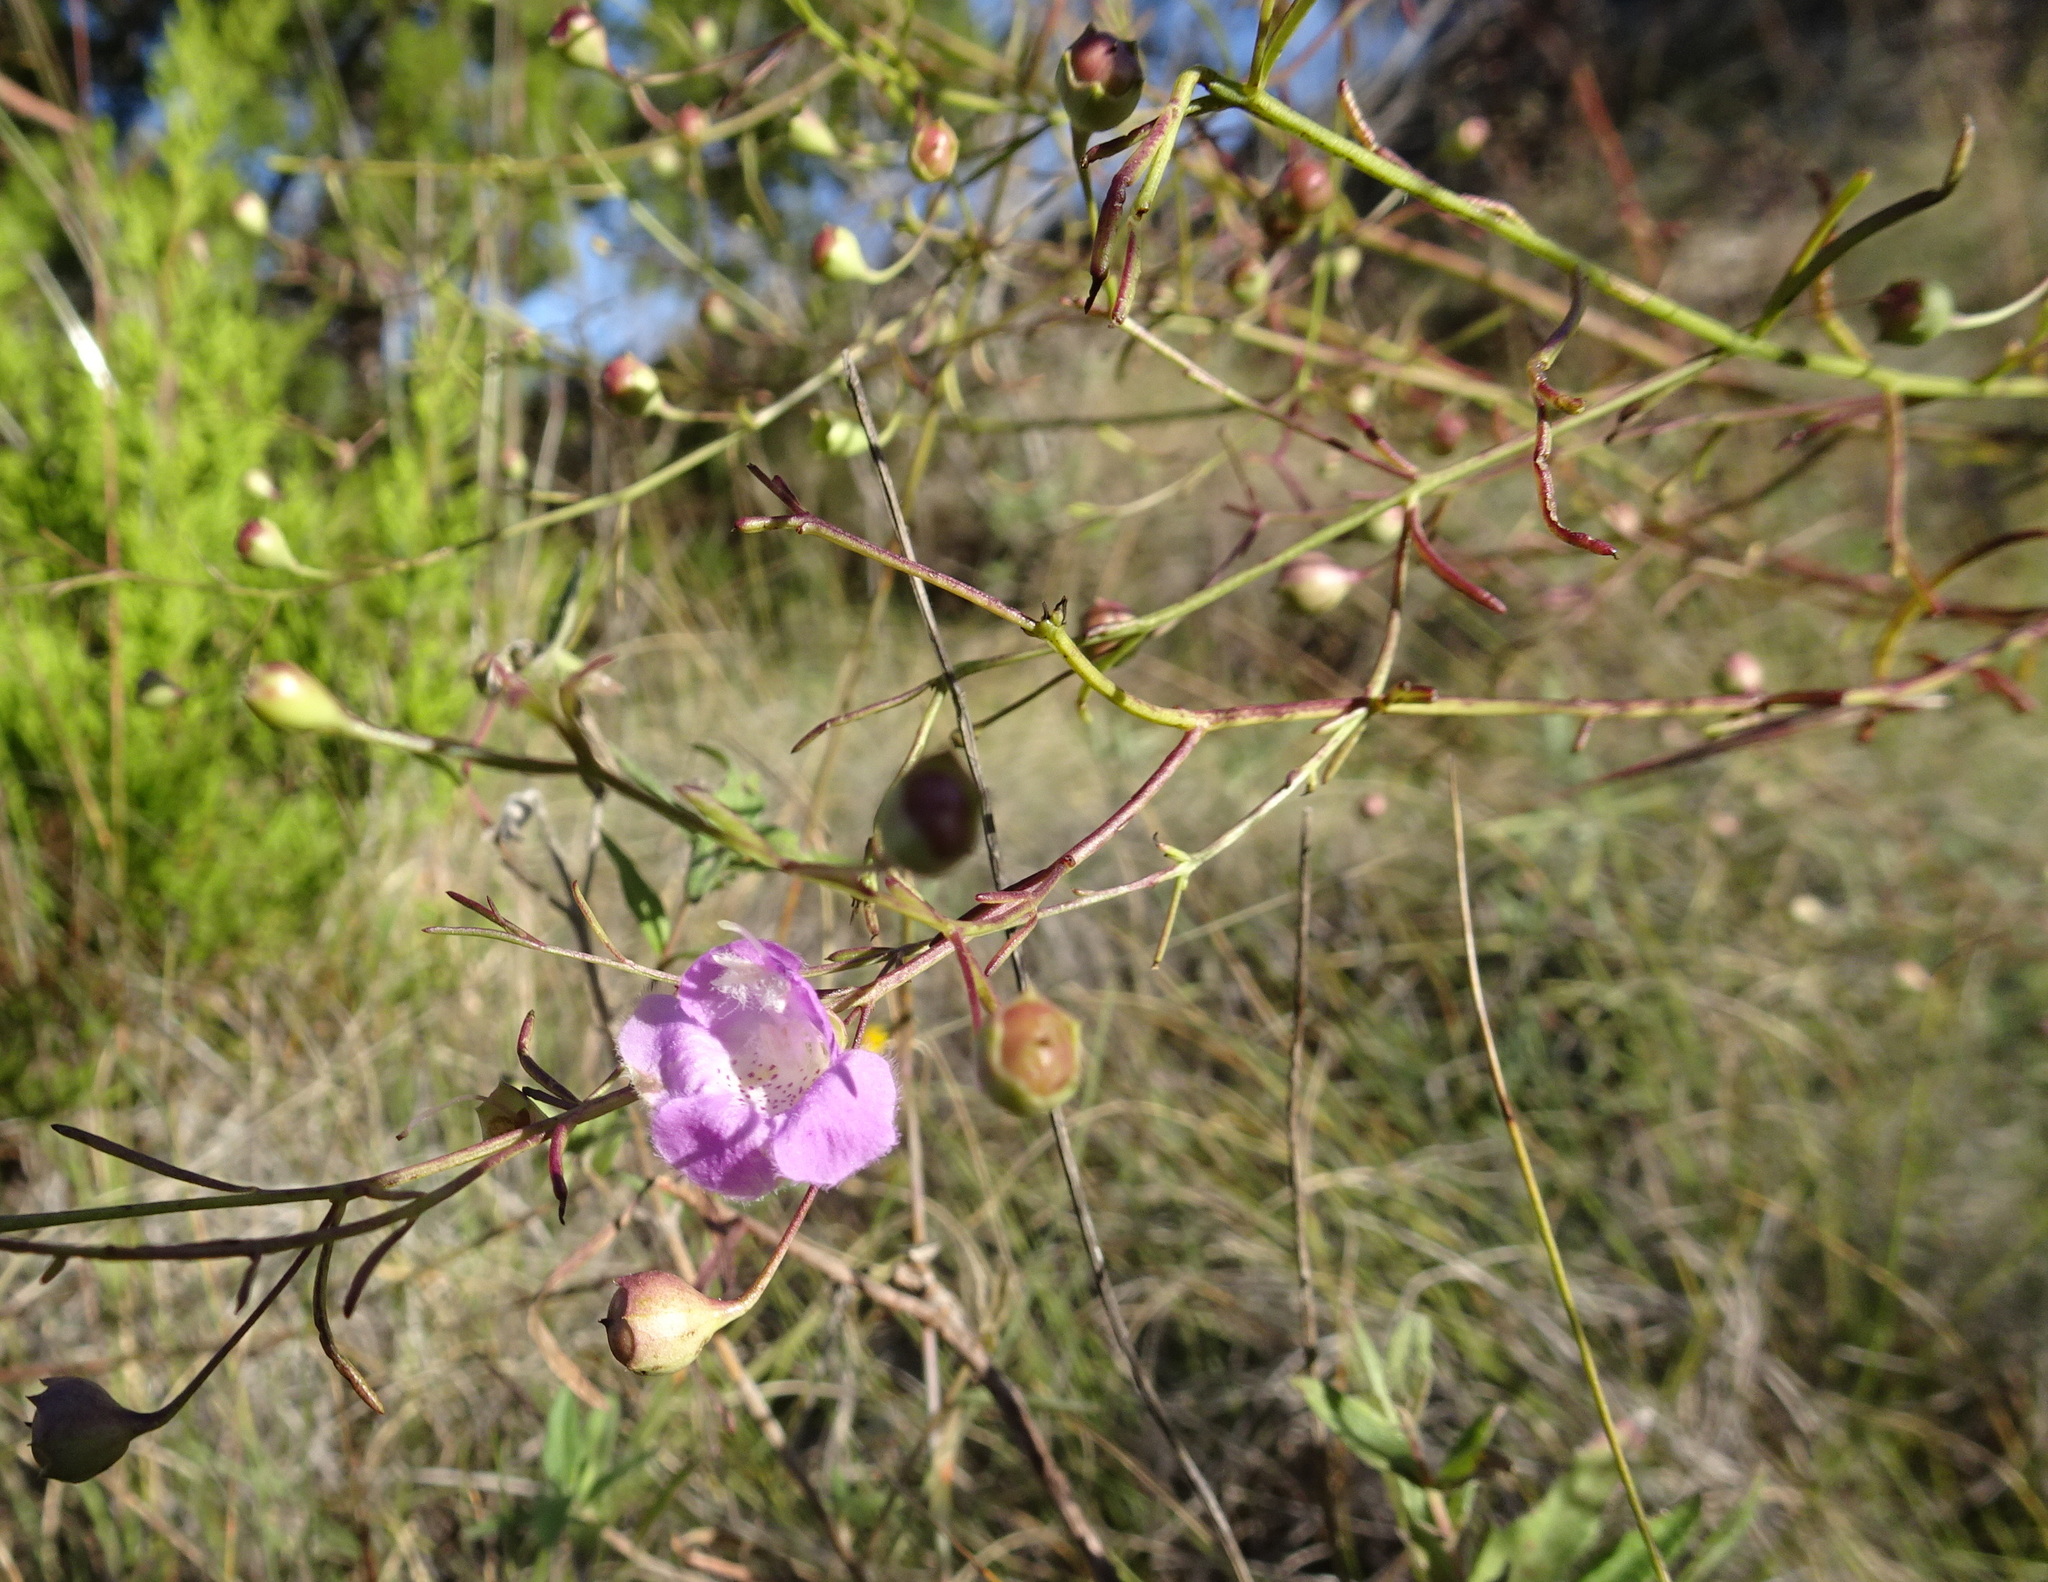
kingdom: Plantae
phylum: Tracheophyta
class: Magnoliopsida
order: Lamiales
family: Orobanchaceae
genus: Agalinis
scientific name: Agalinis edwardsiana
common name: Plateau-gerardia
